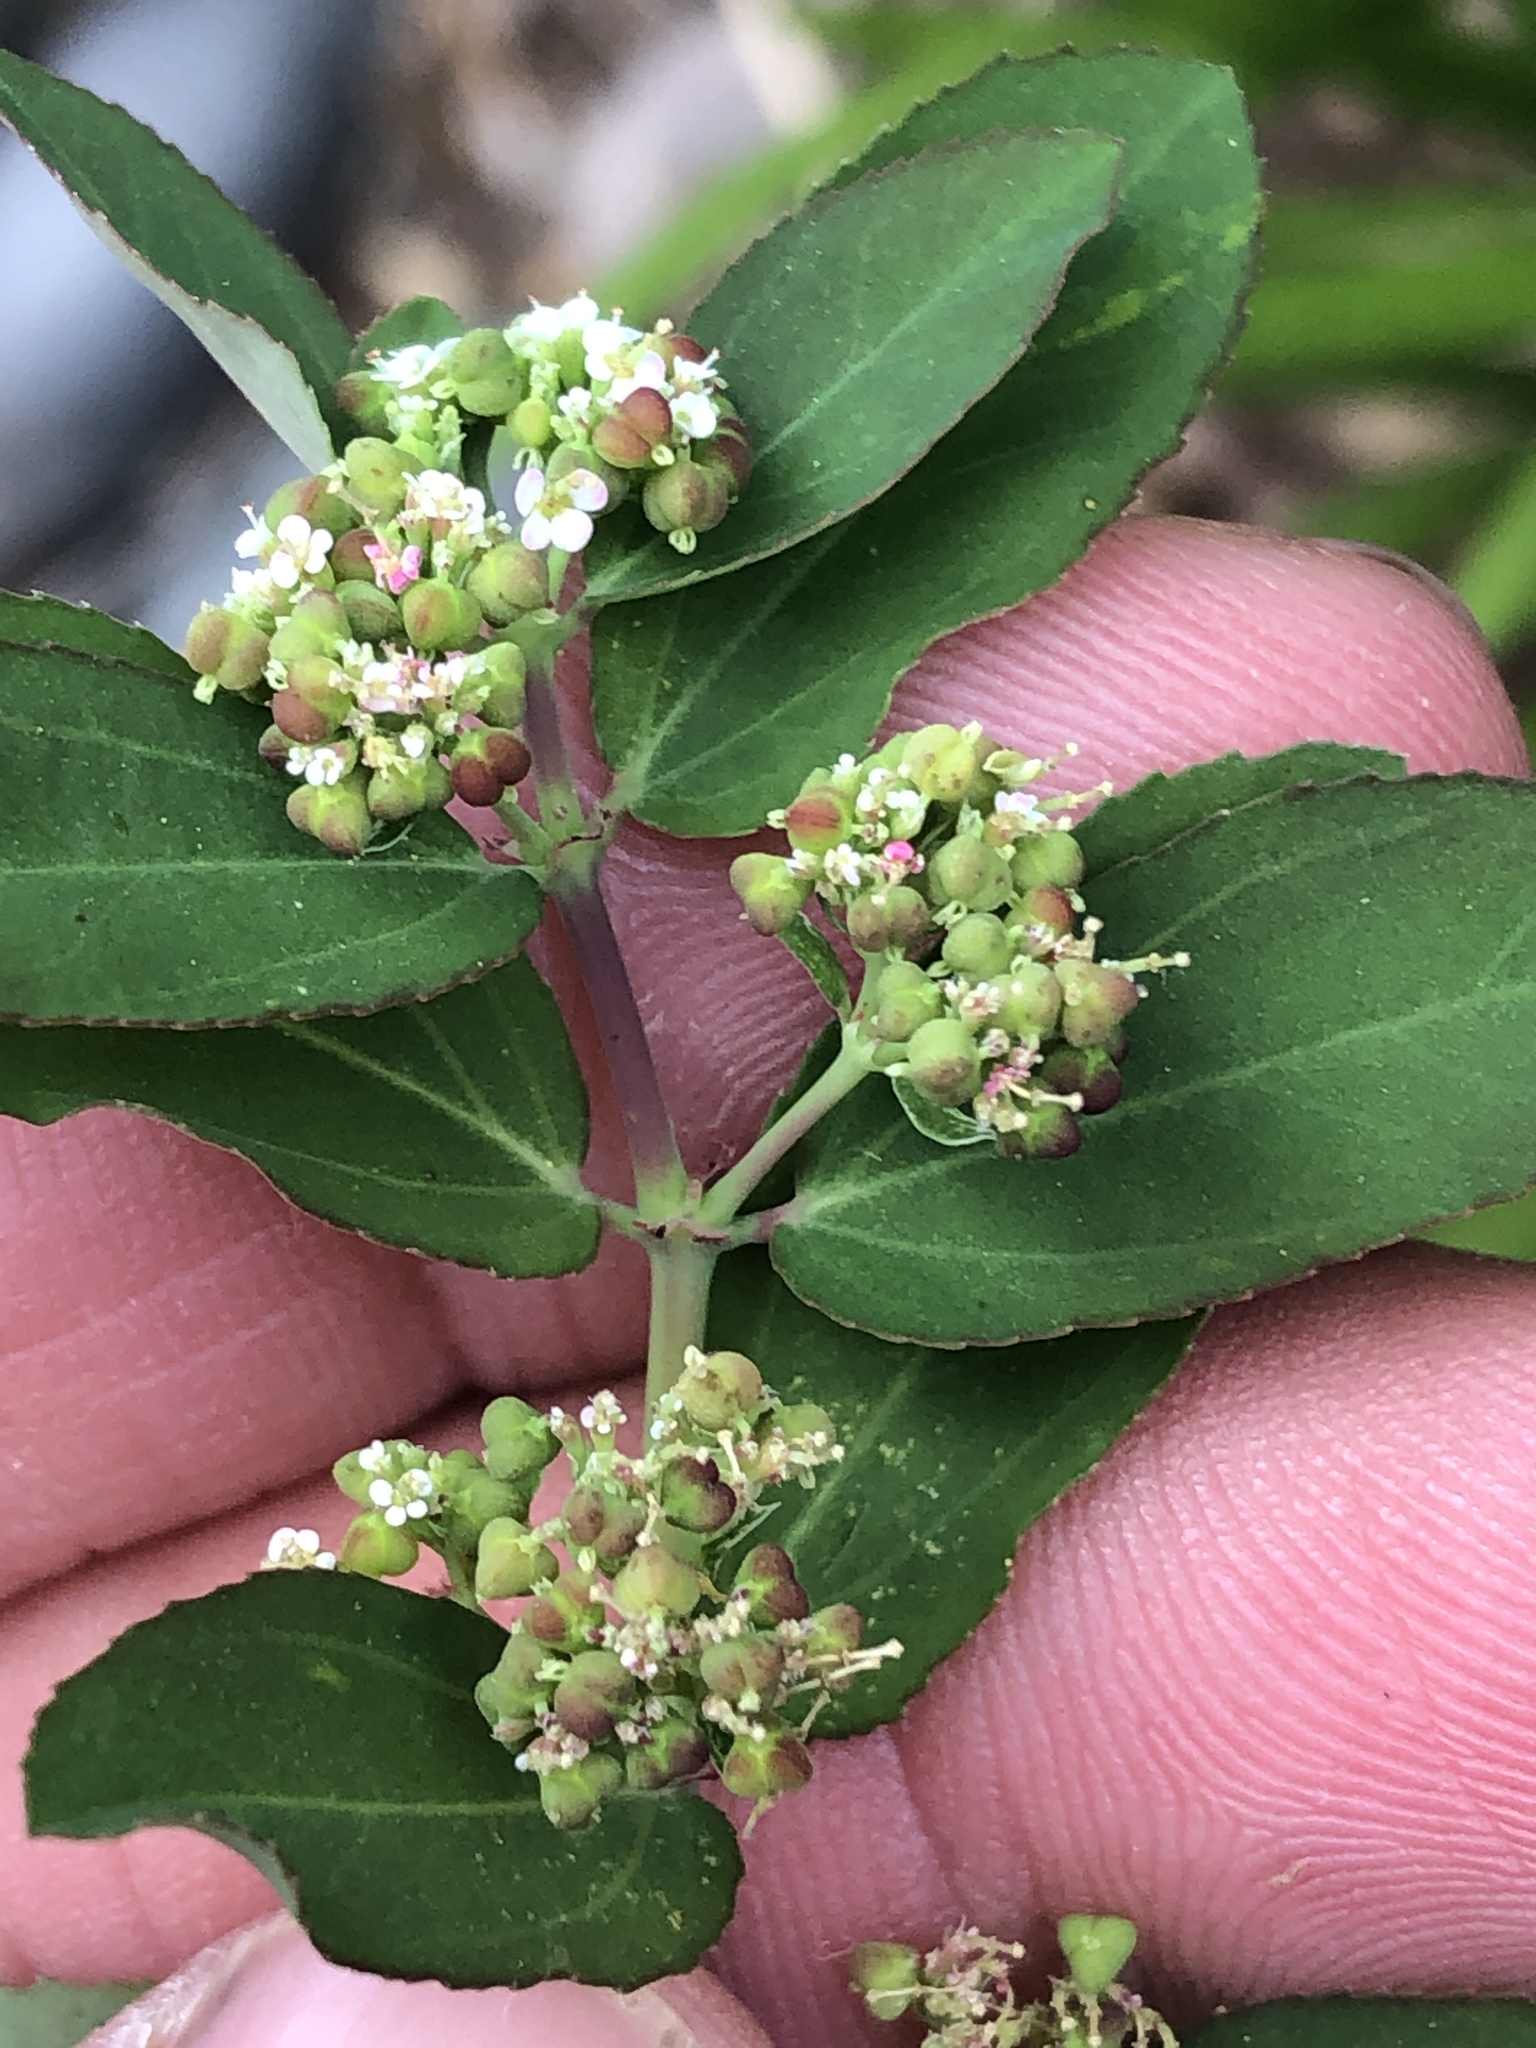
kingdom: Plantae
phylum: Tracheophyta
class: Magnoliopsida
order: Malpighiales
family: Euphorbiaceae
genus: Euphorbia
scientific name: Euphorbia hypericifolia
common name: Graceful sandmat
